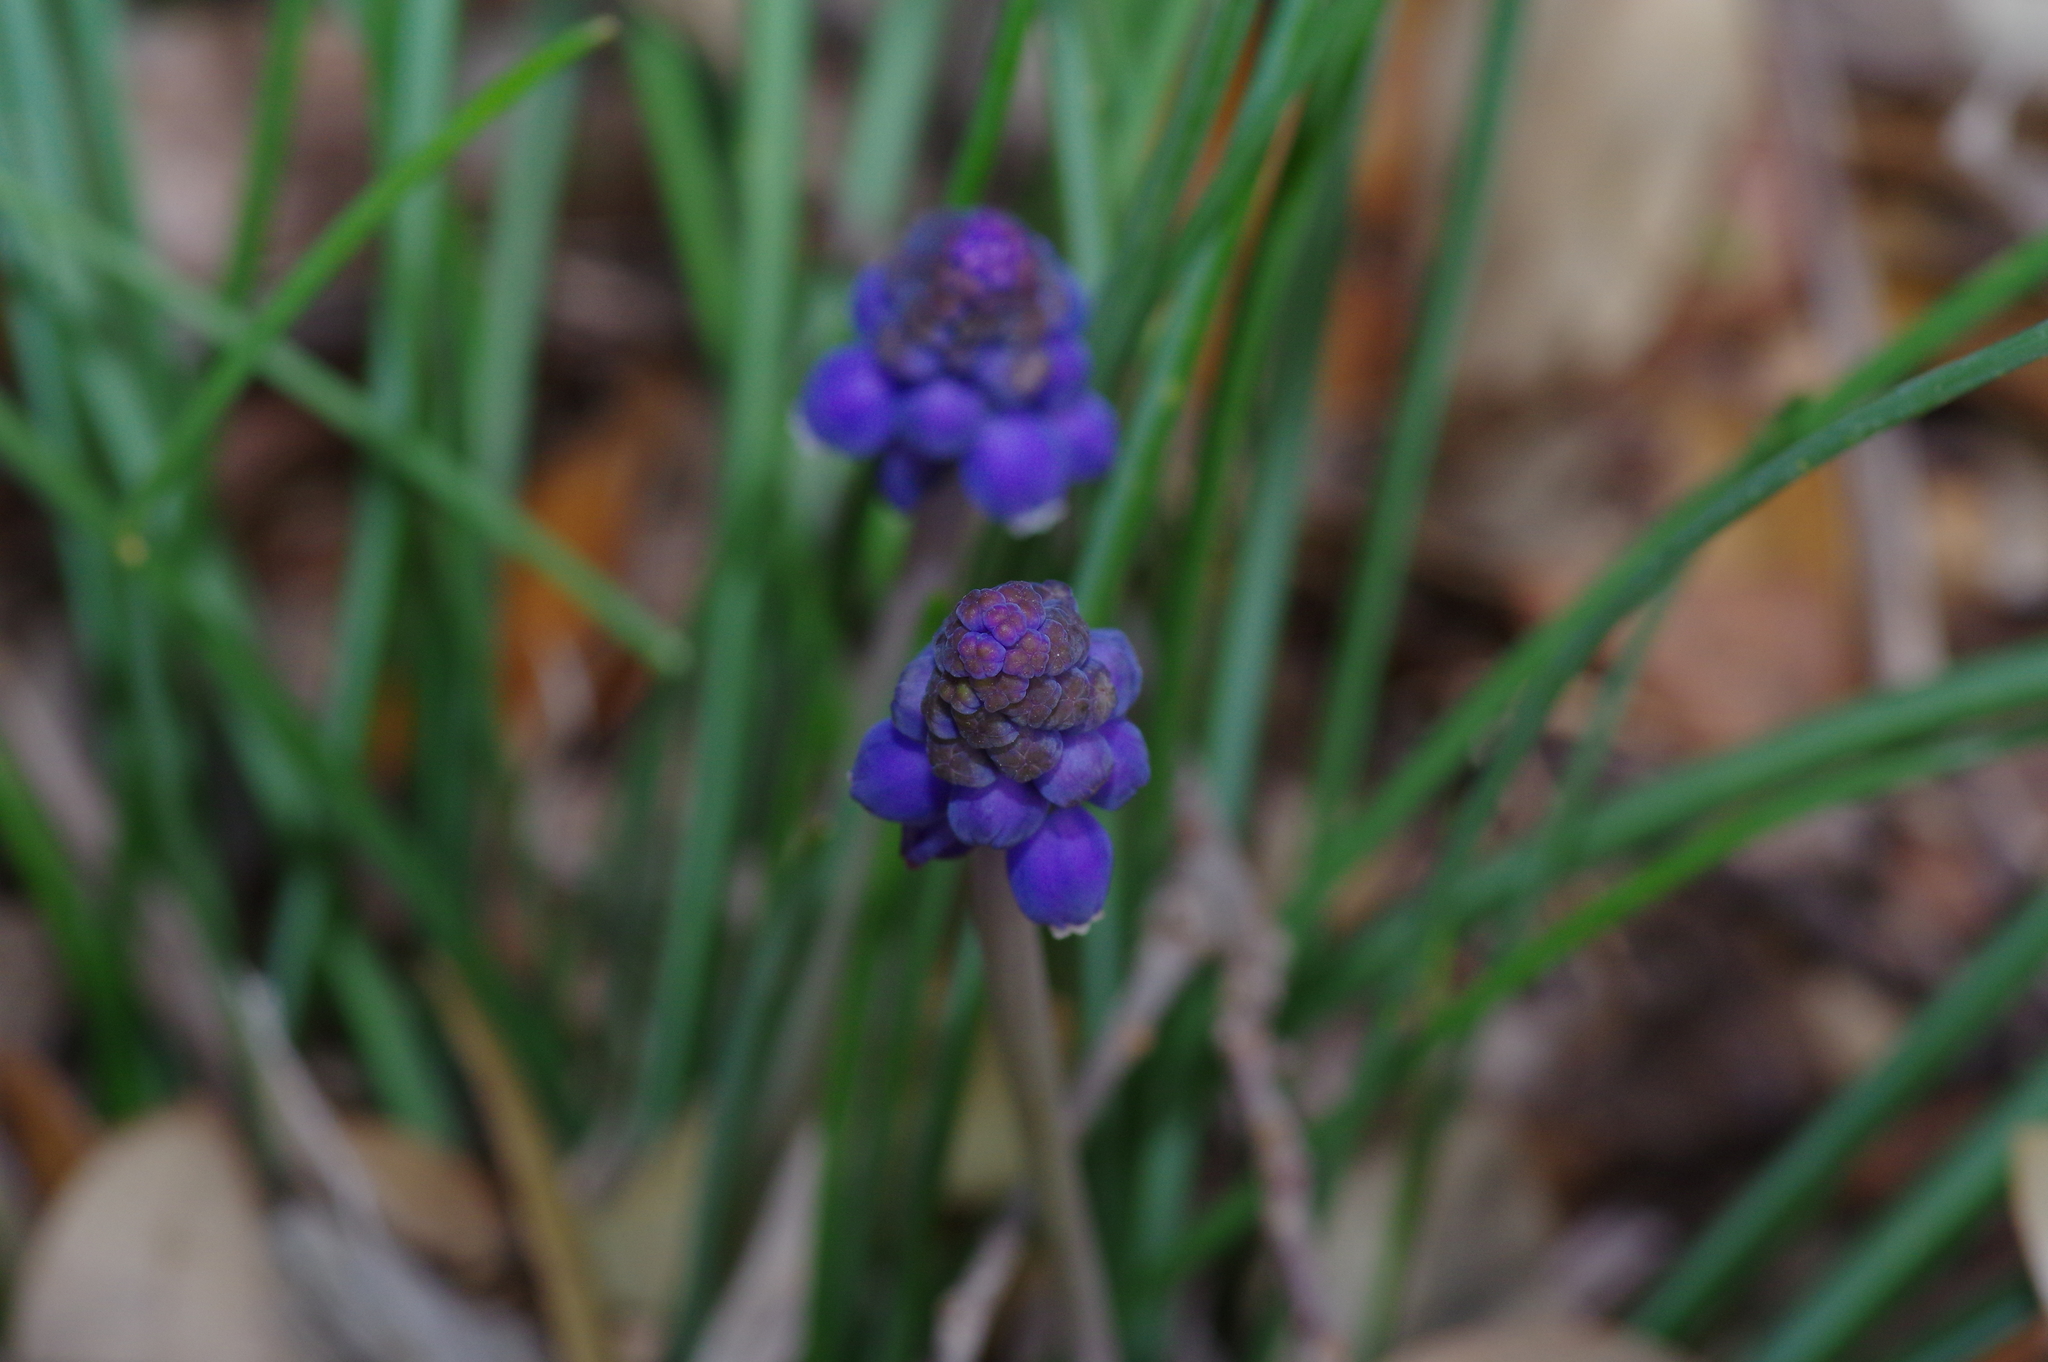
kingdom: Plantae
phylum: Tracheophyta
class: Liliopsida
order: Asparagales
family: Asparagaceae
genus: Muscari
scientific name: Muscari neglectum
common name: Grape-hyacinth
